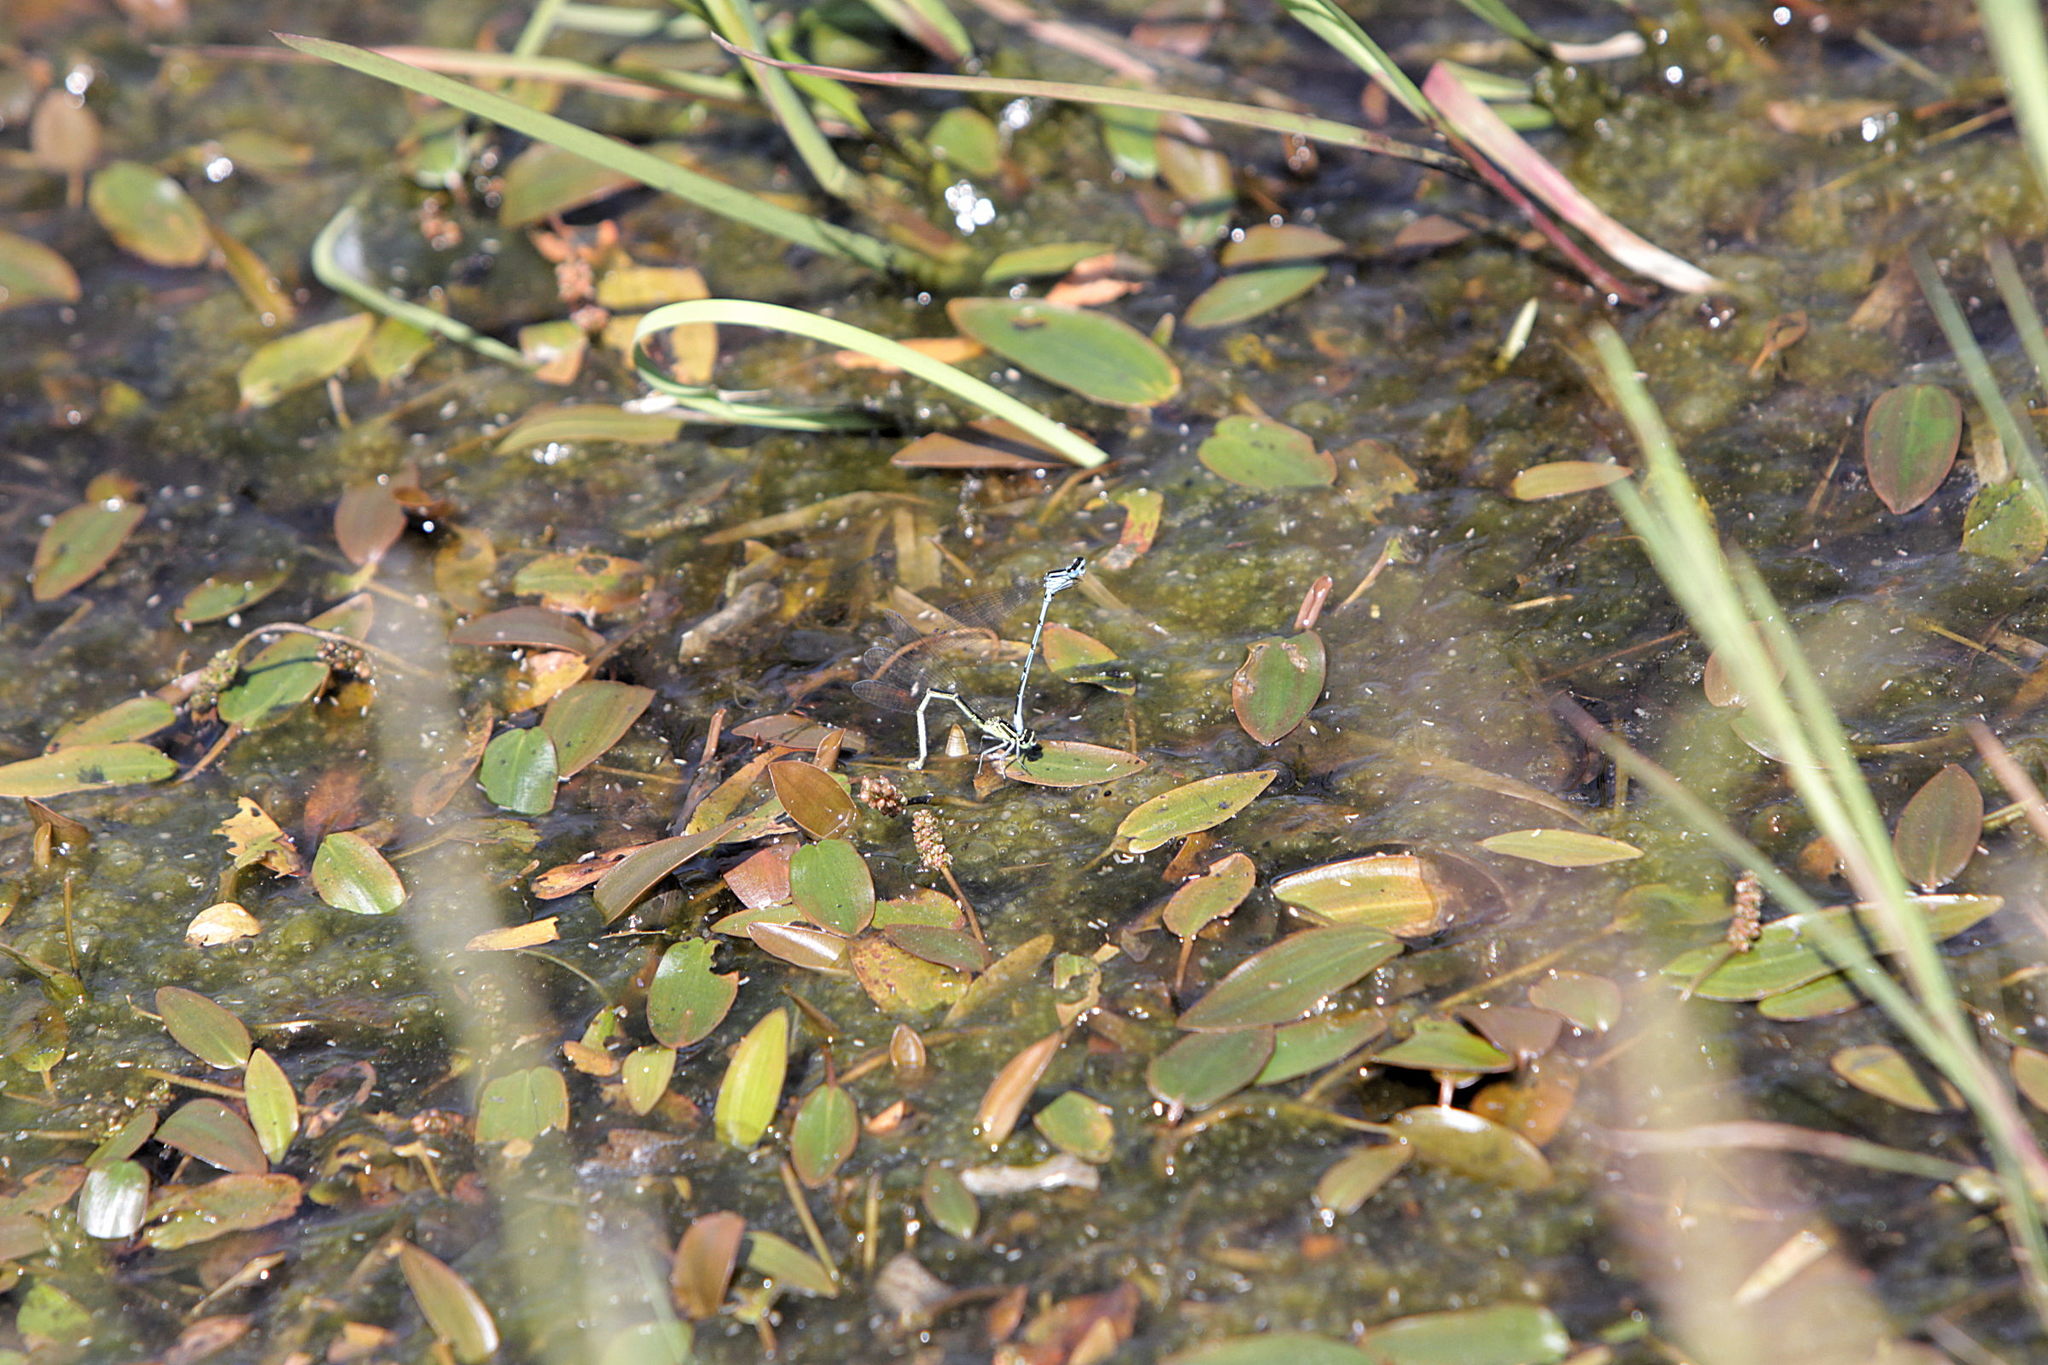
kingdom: Animalia
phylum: Arthropoda
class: Insecta
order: Odonata
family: Coenagrionidae
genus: Coenagrion
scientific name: Coenagrion puella
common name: Azure damselfly
